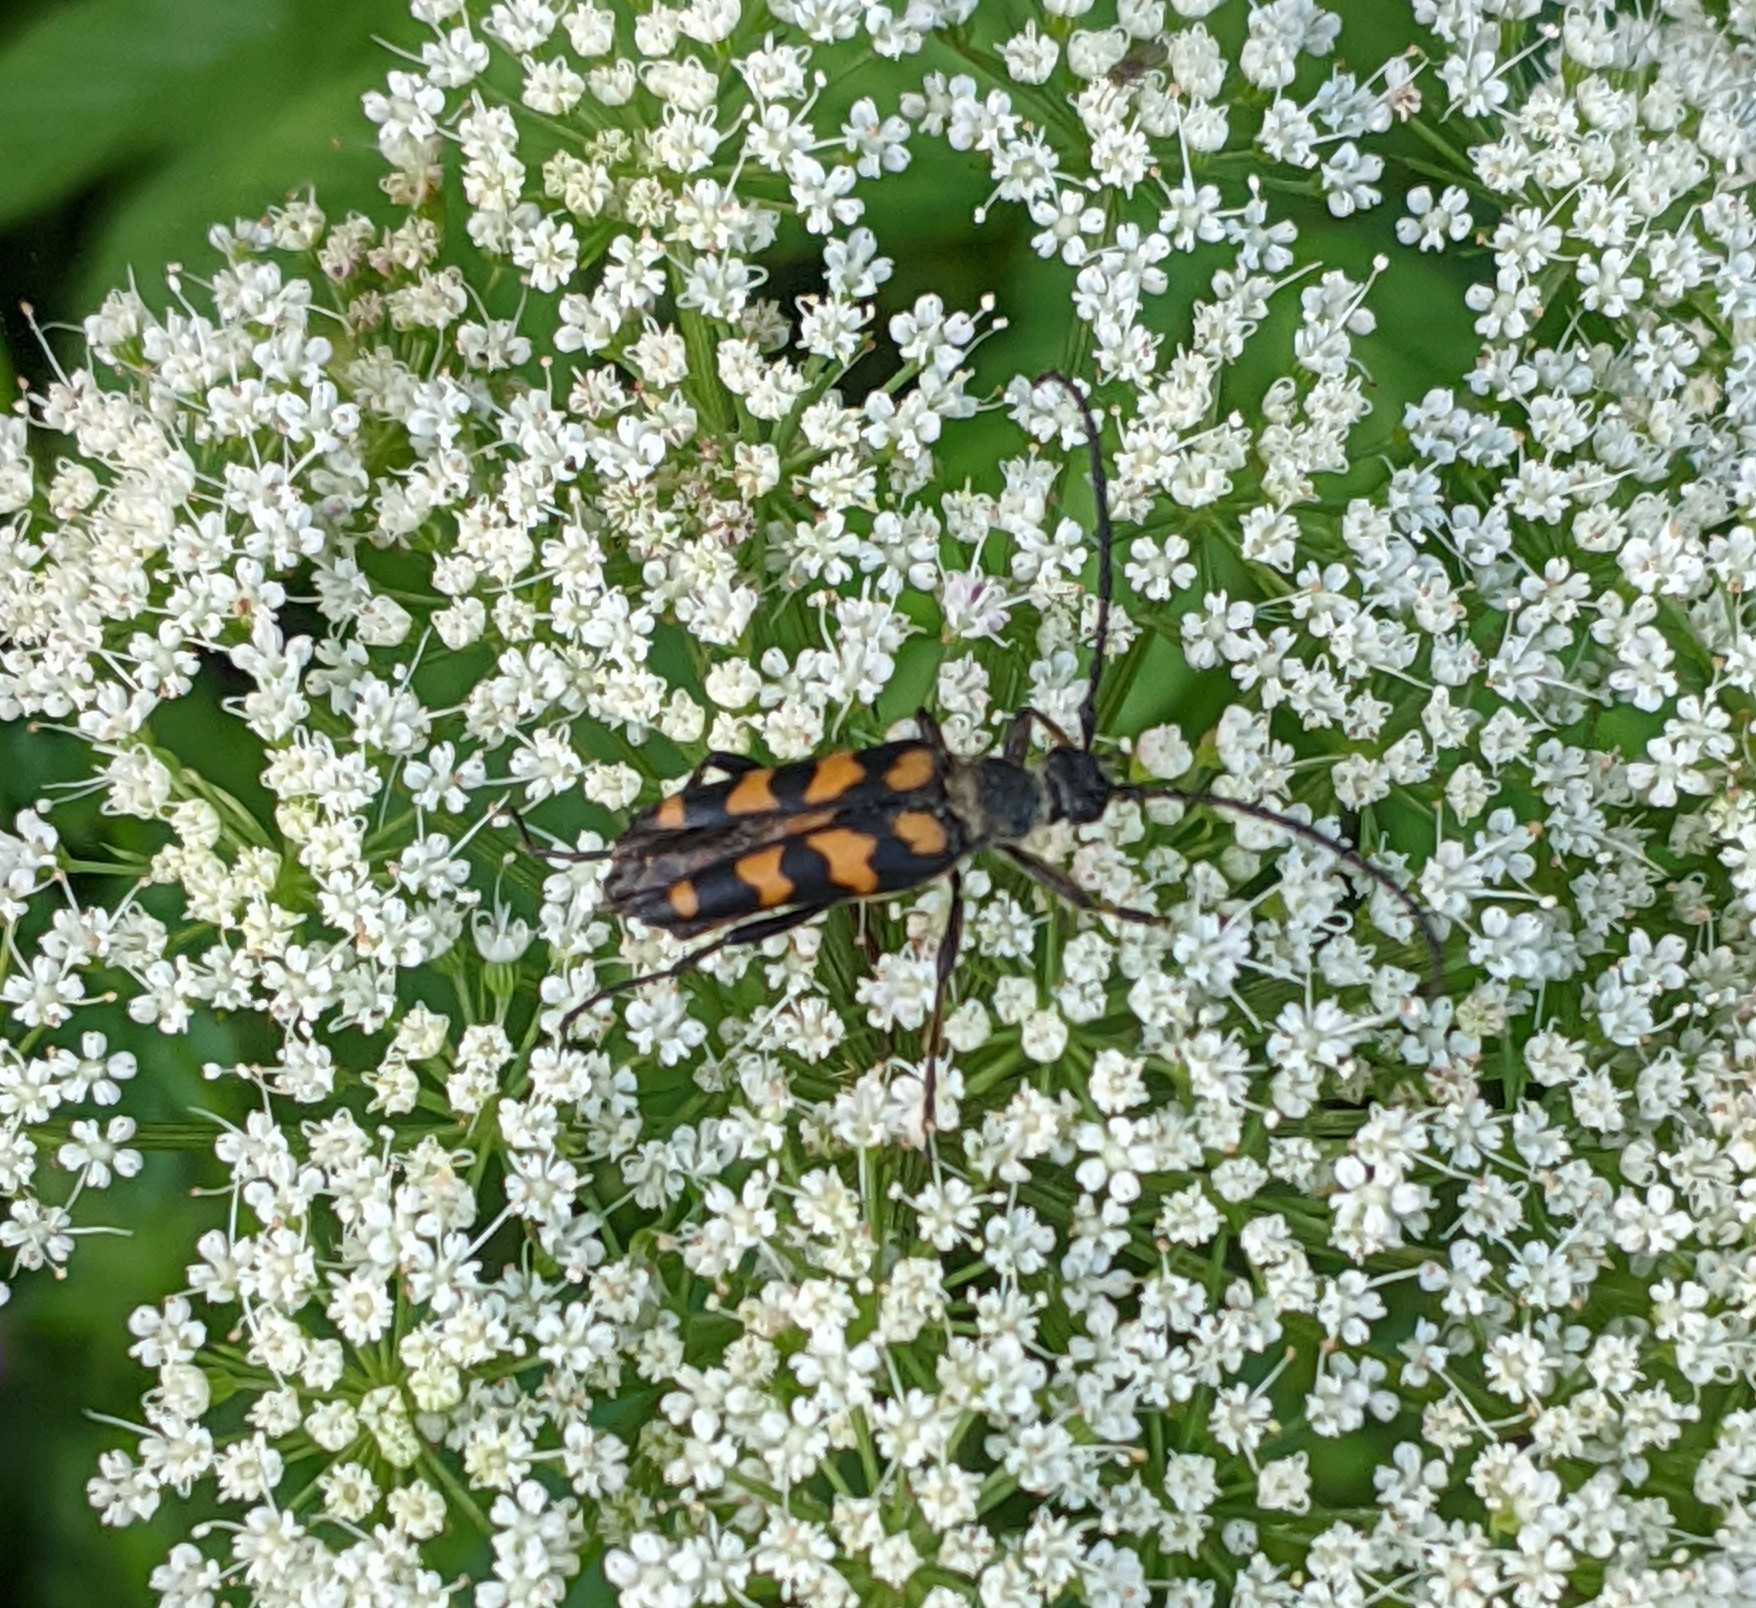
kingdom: Animalia
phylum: Arthropoda
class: Insecta
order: Coleoptera
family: Cerambycidae
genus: Leptura
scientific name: Leptura quadrifasciata
